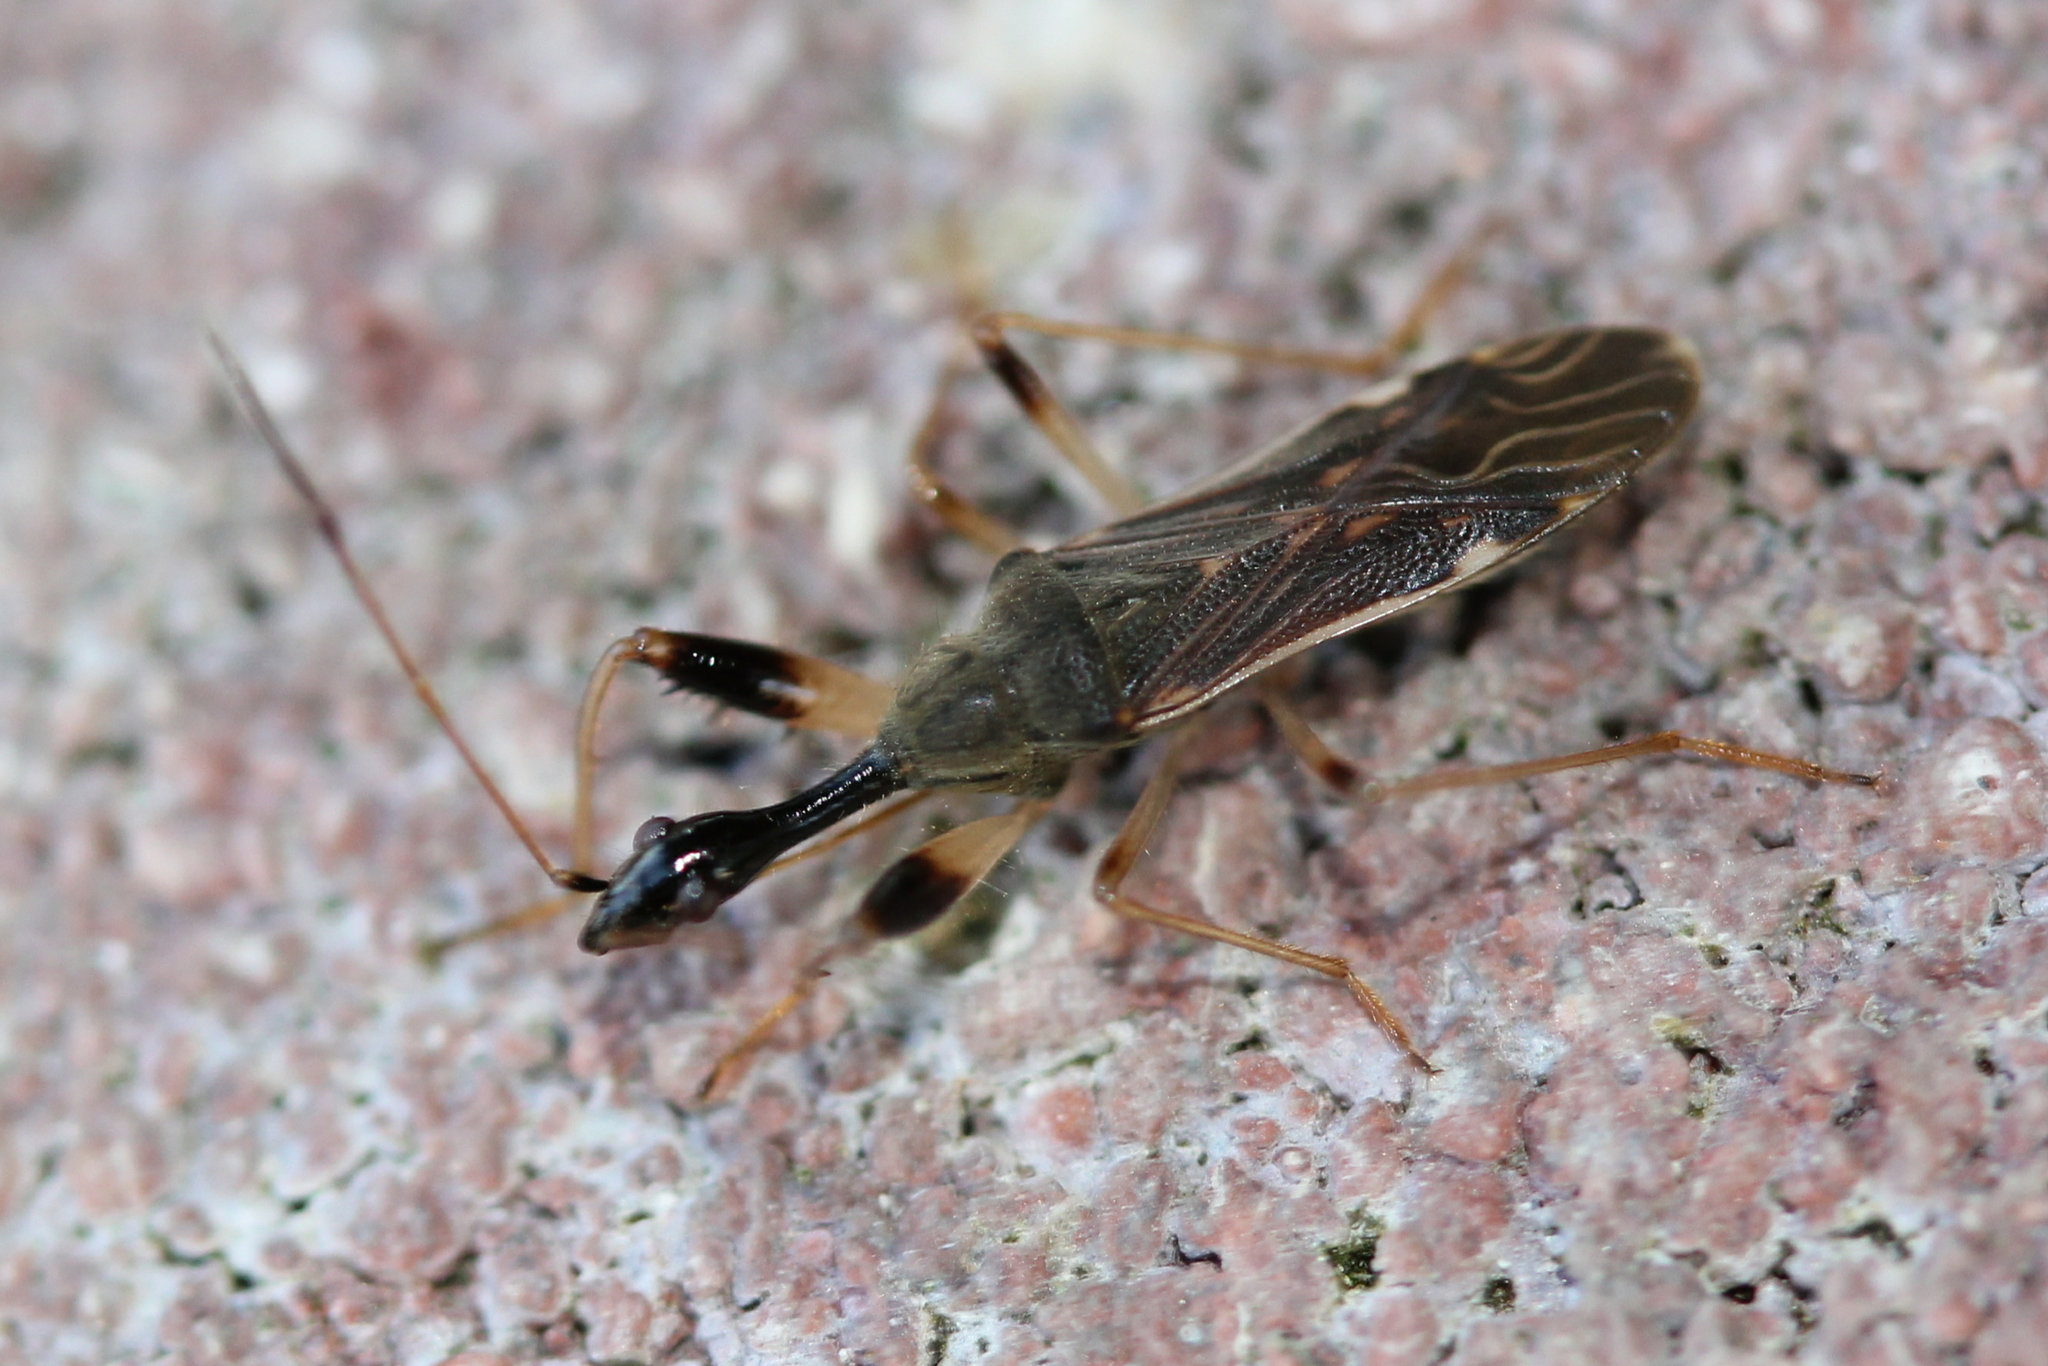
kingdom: Animalia
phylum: Arthropoda
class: Insecta
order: Hemiptera
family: Rhyparochromidae
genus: Myodocha
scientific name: Myodocha serripes
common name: Long-necked seed bug
